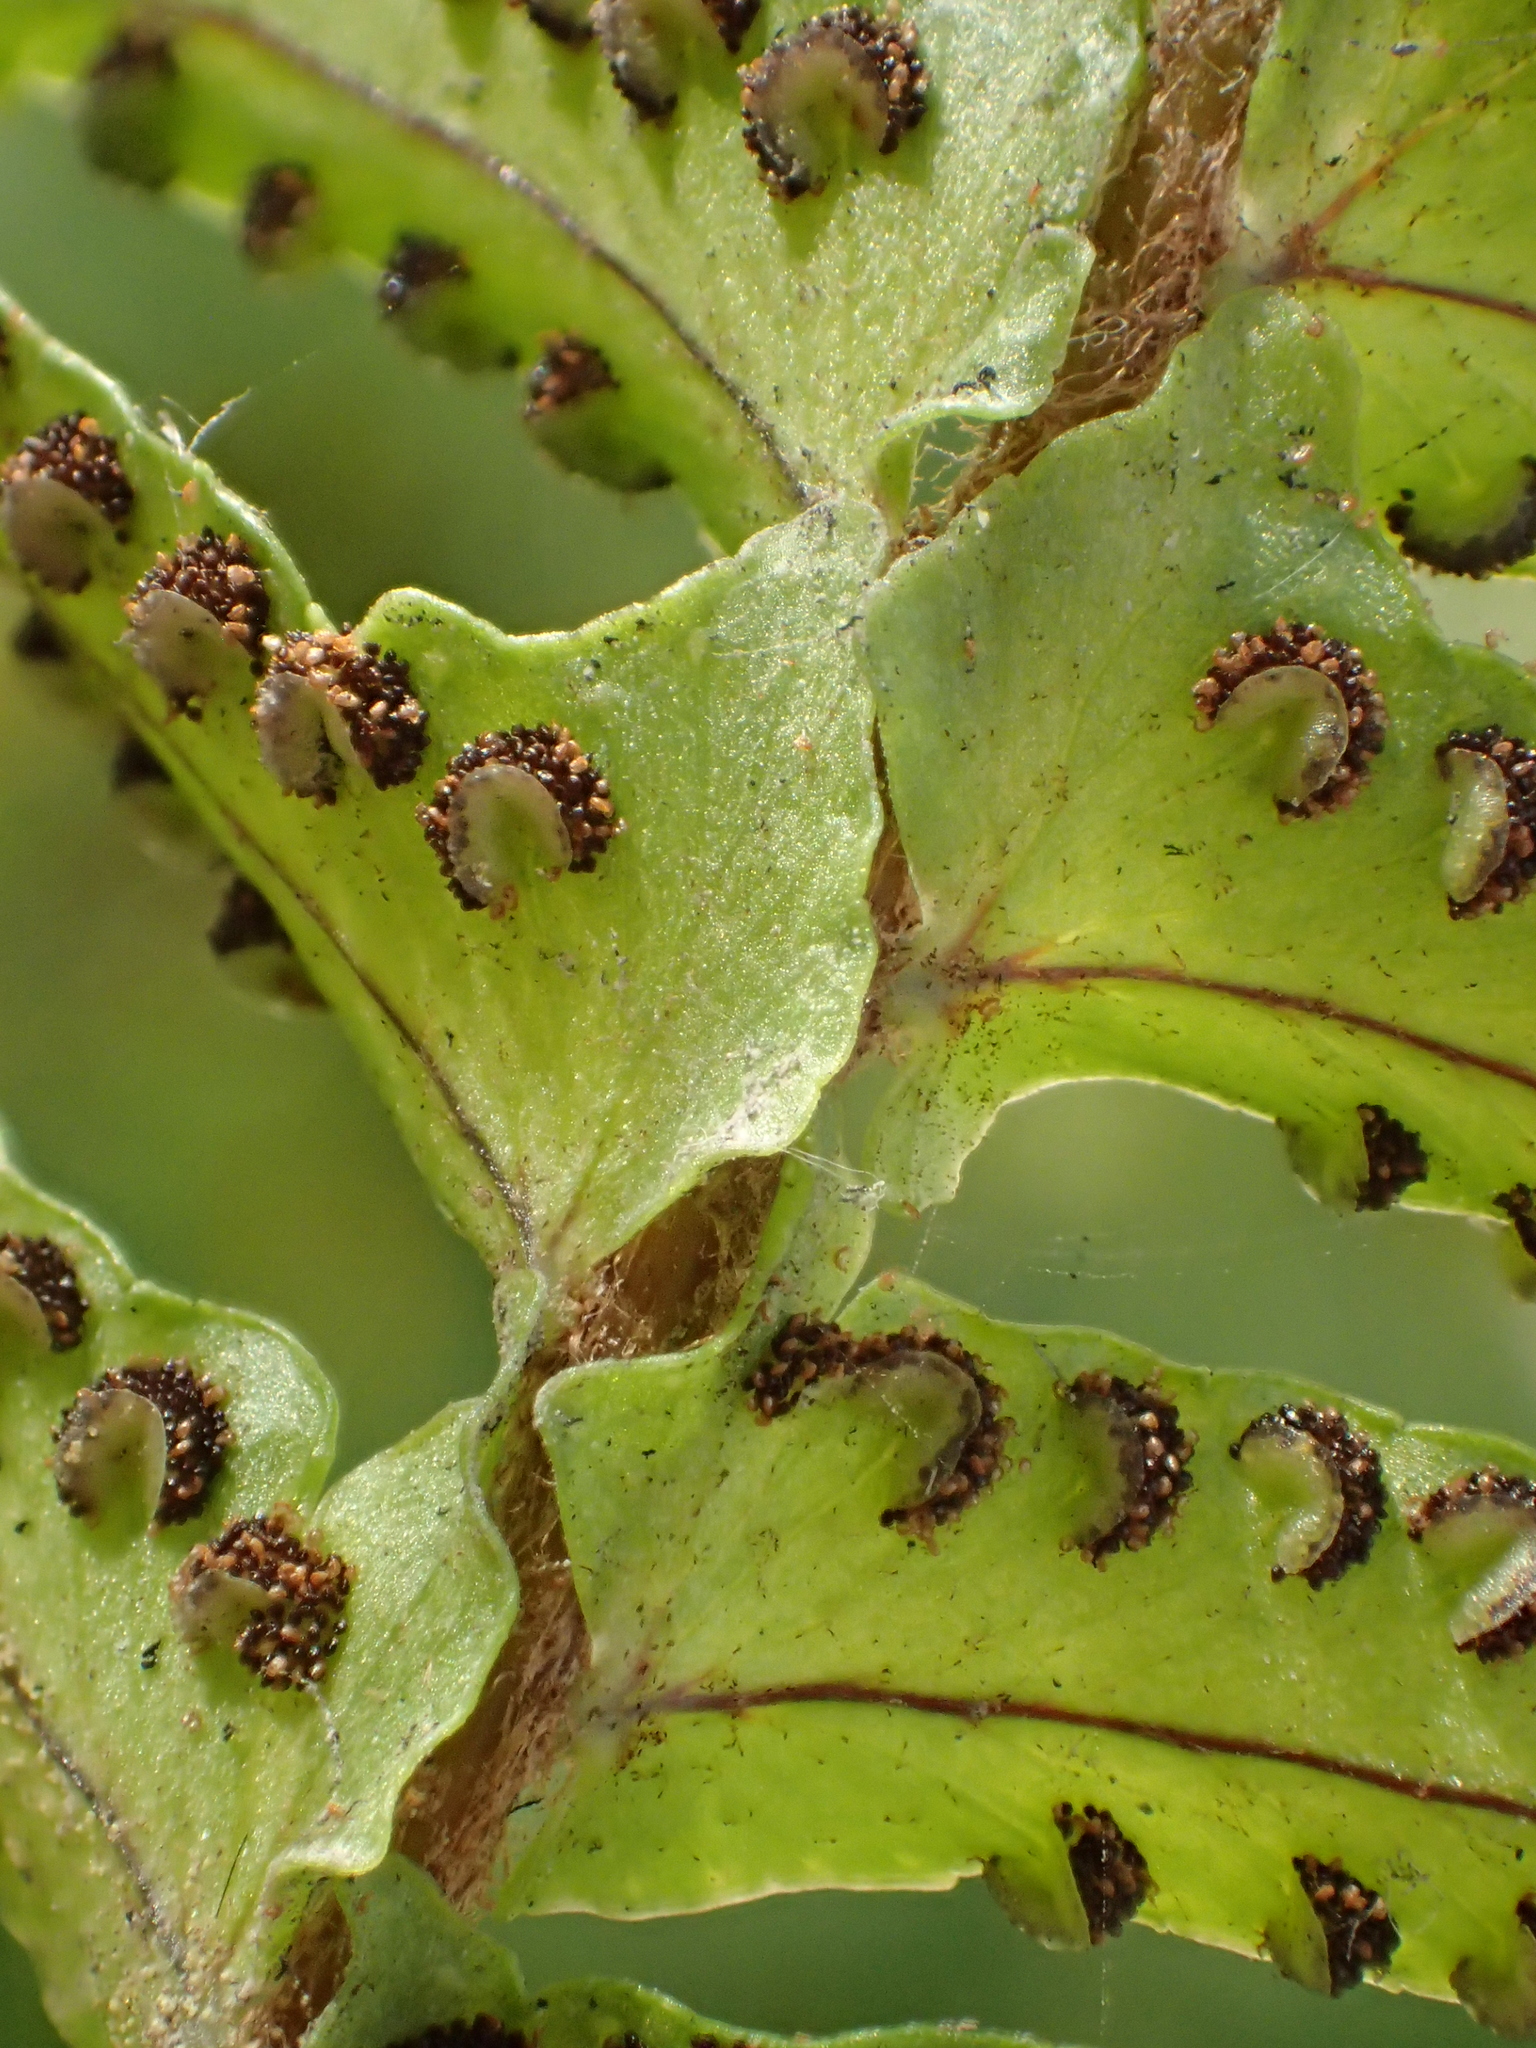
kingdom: Plantae
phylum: Tracheophyta
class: Polypodiopsida
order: Polypodiales
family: Nephrolepidaceae
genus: Nephrolepis
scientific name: Nephrolepis cordifolia
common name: Narrow swordfern
